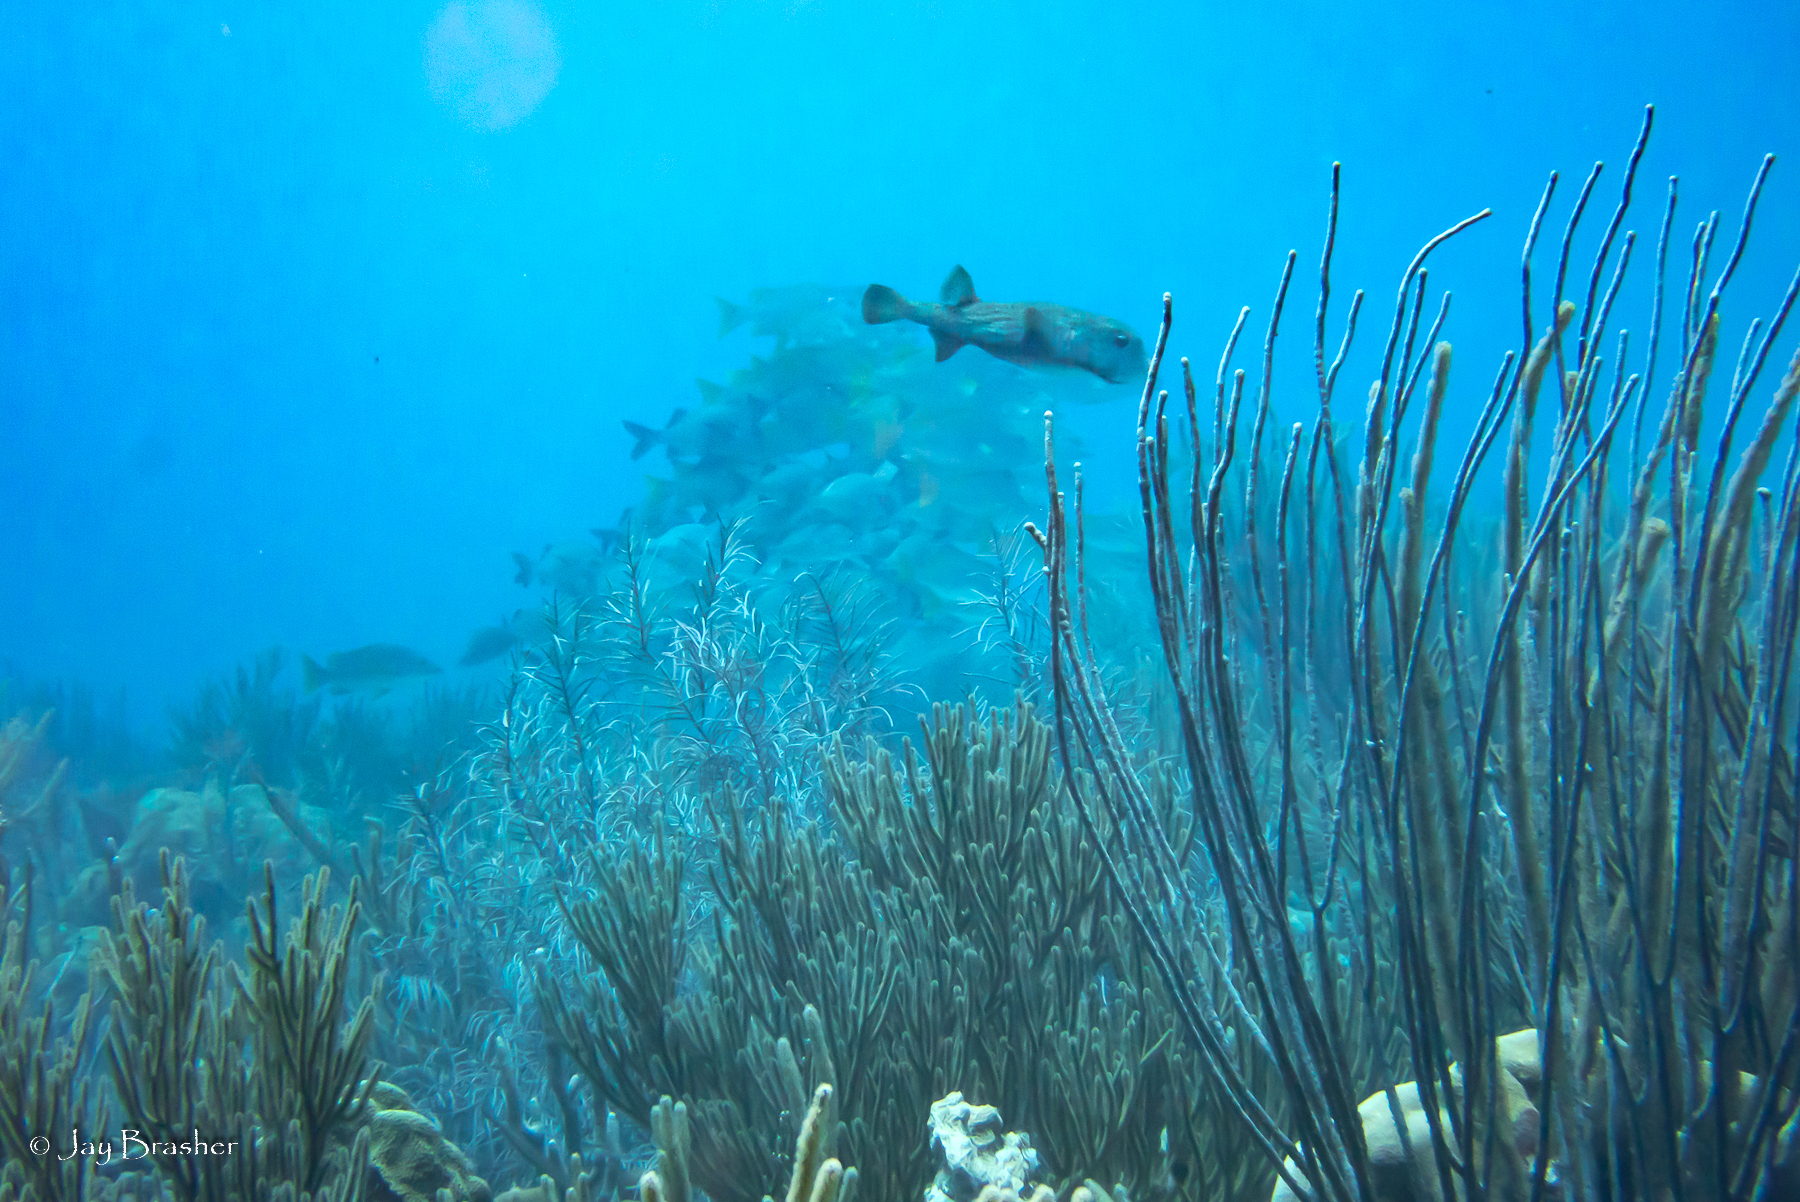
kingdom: Animalia
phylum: Chordata
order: Tetraodontiformes
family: Diodontidae
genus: Diodon
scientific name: Diodon hystrix
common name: Giant porcupinefish
